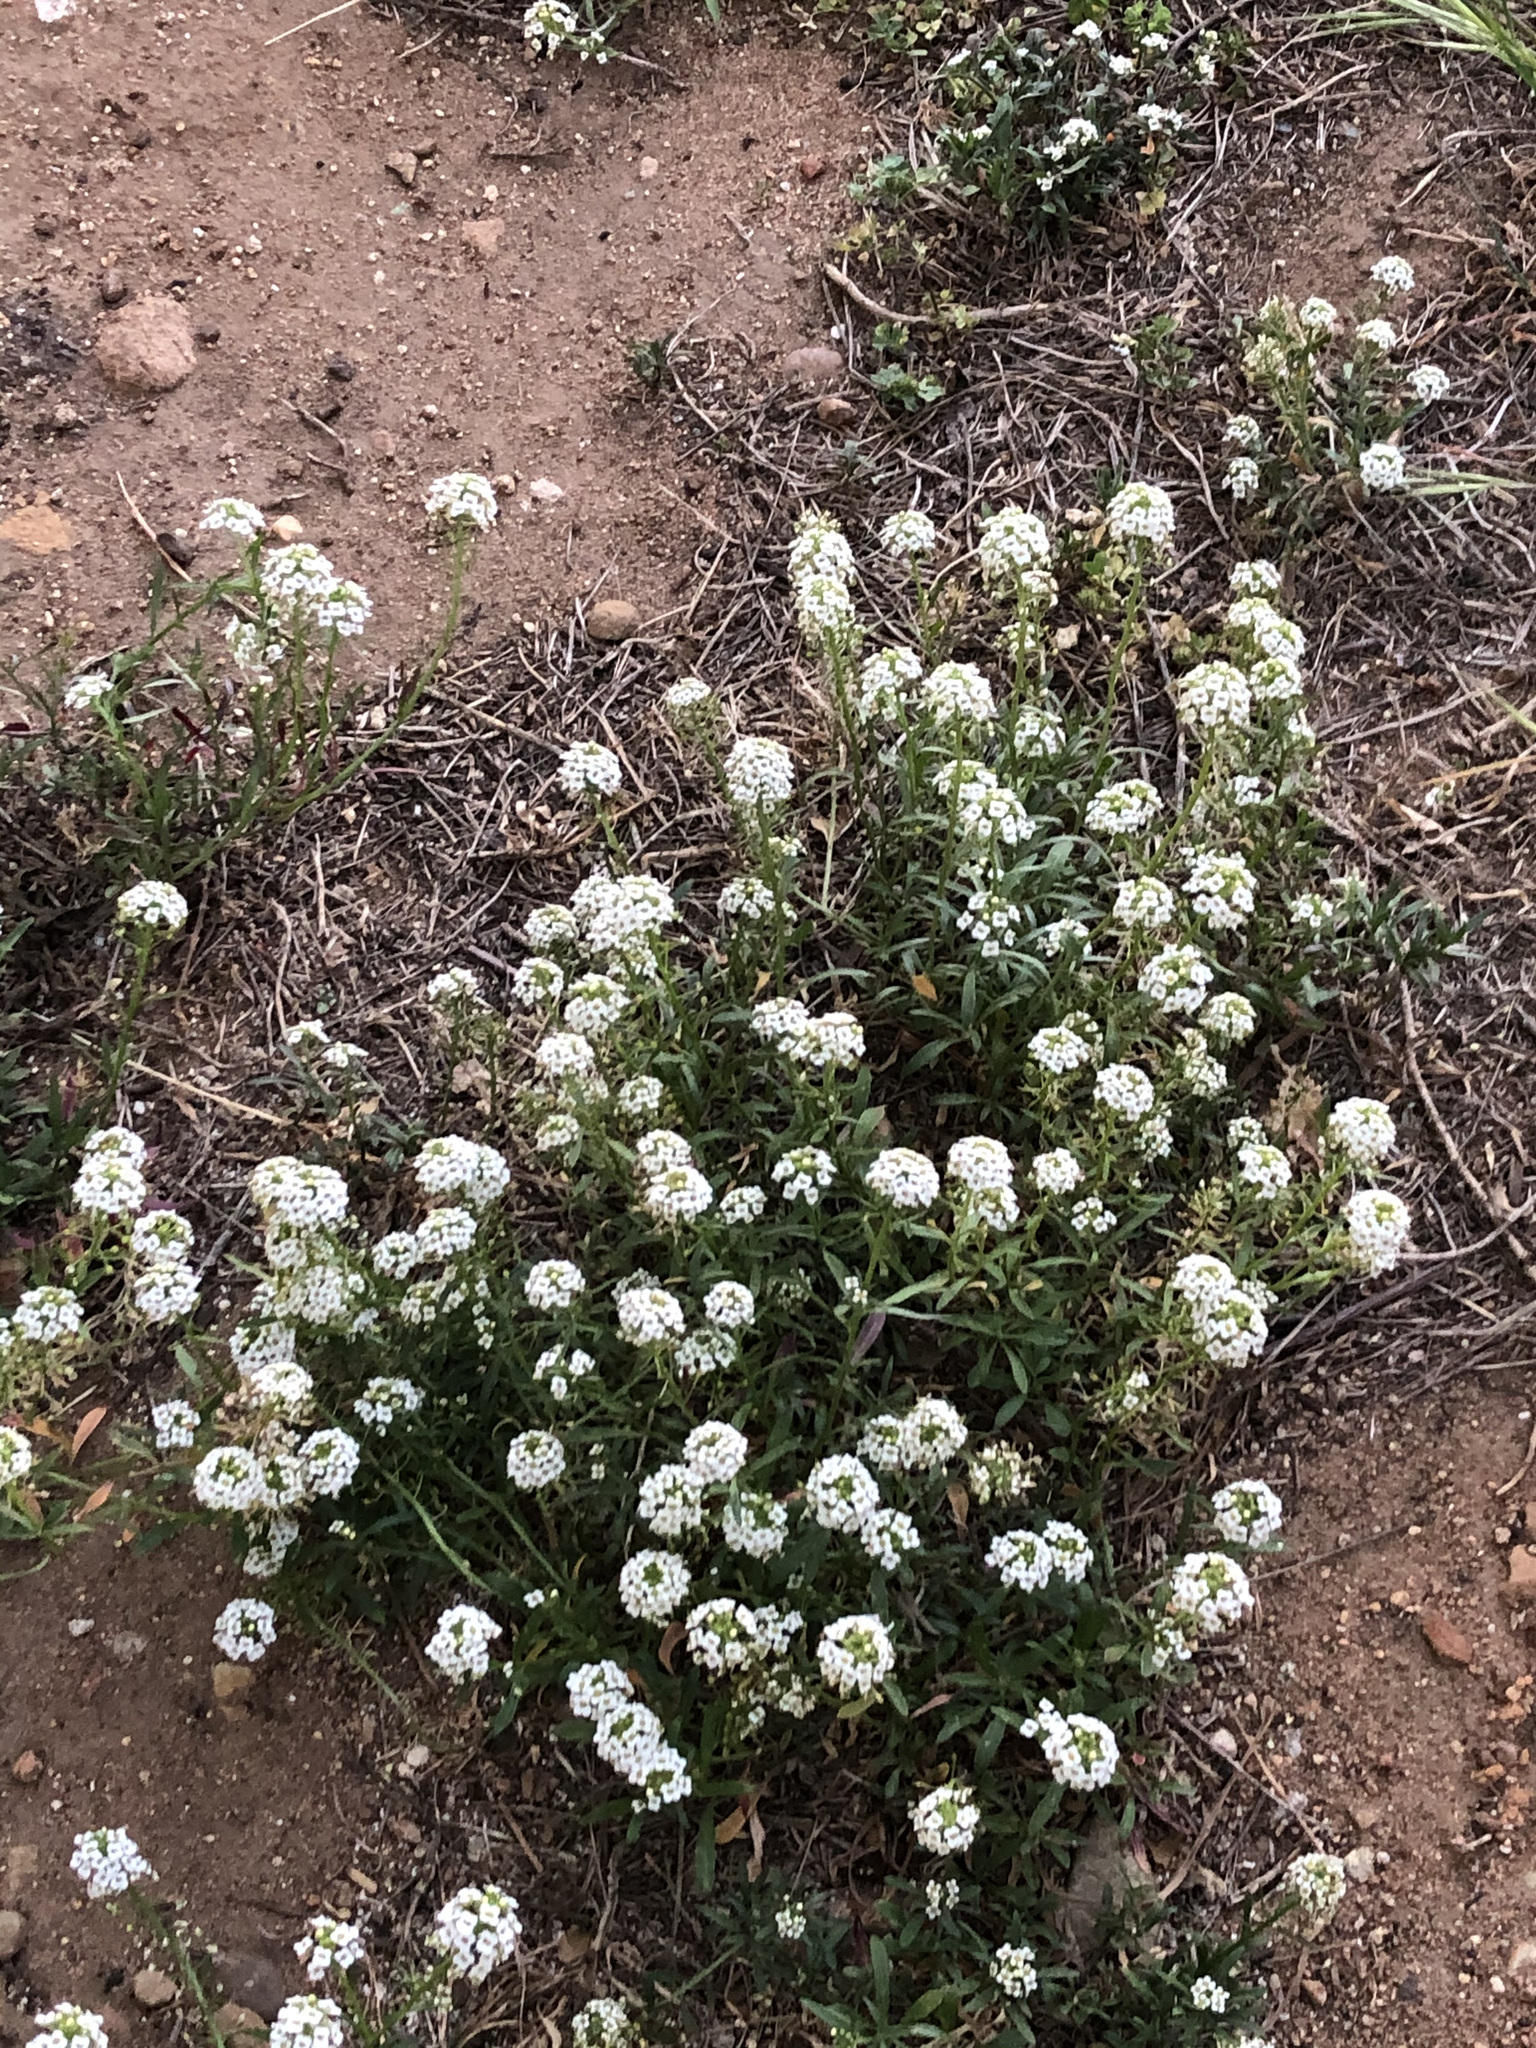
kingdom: Plantae
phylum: Tracheophyta
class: Magnoliopsida
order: Brassicales
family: Brassicaceae
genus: Lobularia
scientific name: Lobularia maritima
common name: Sweet alison
